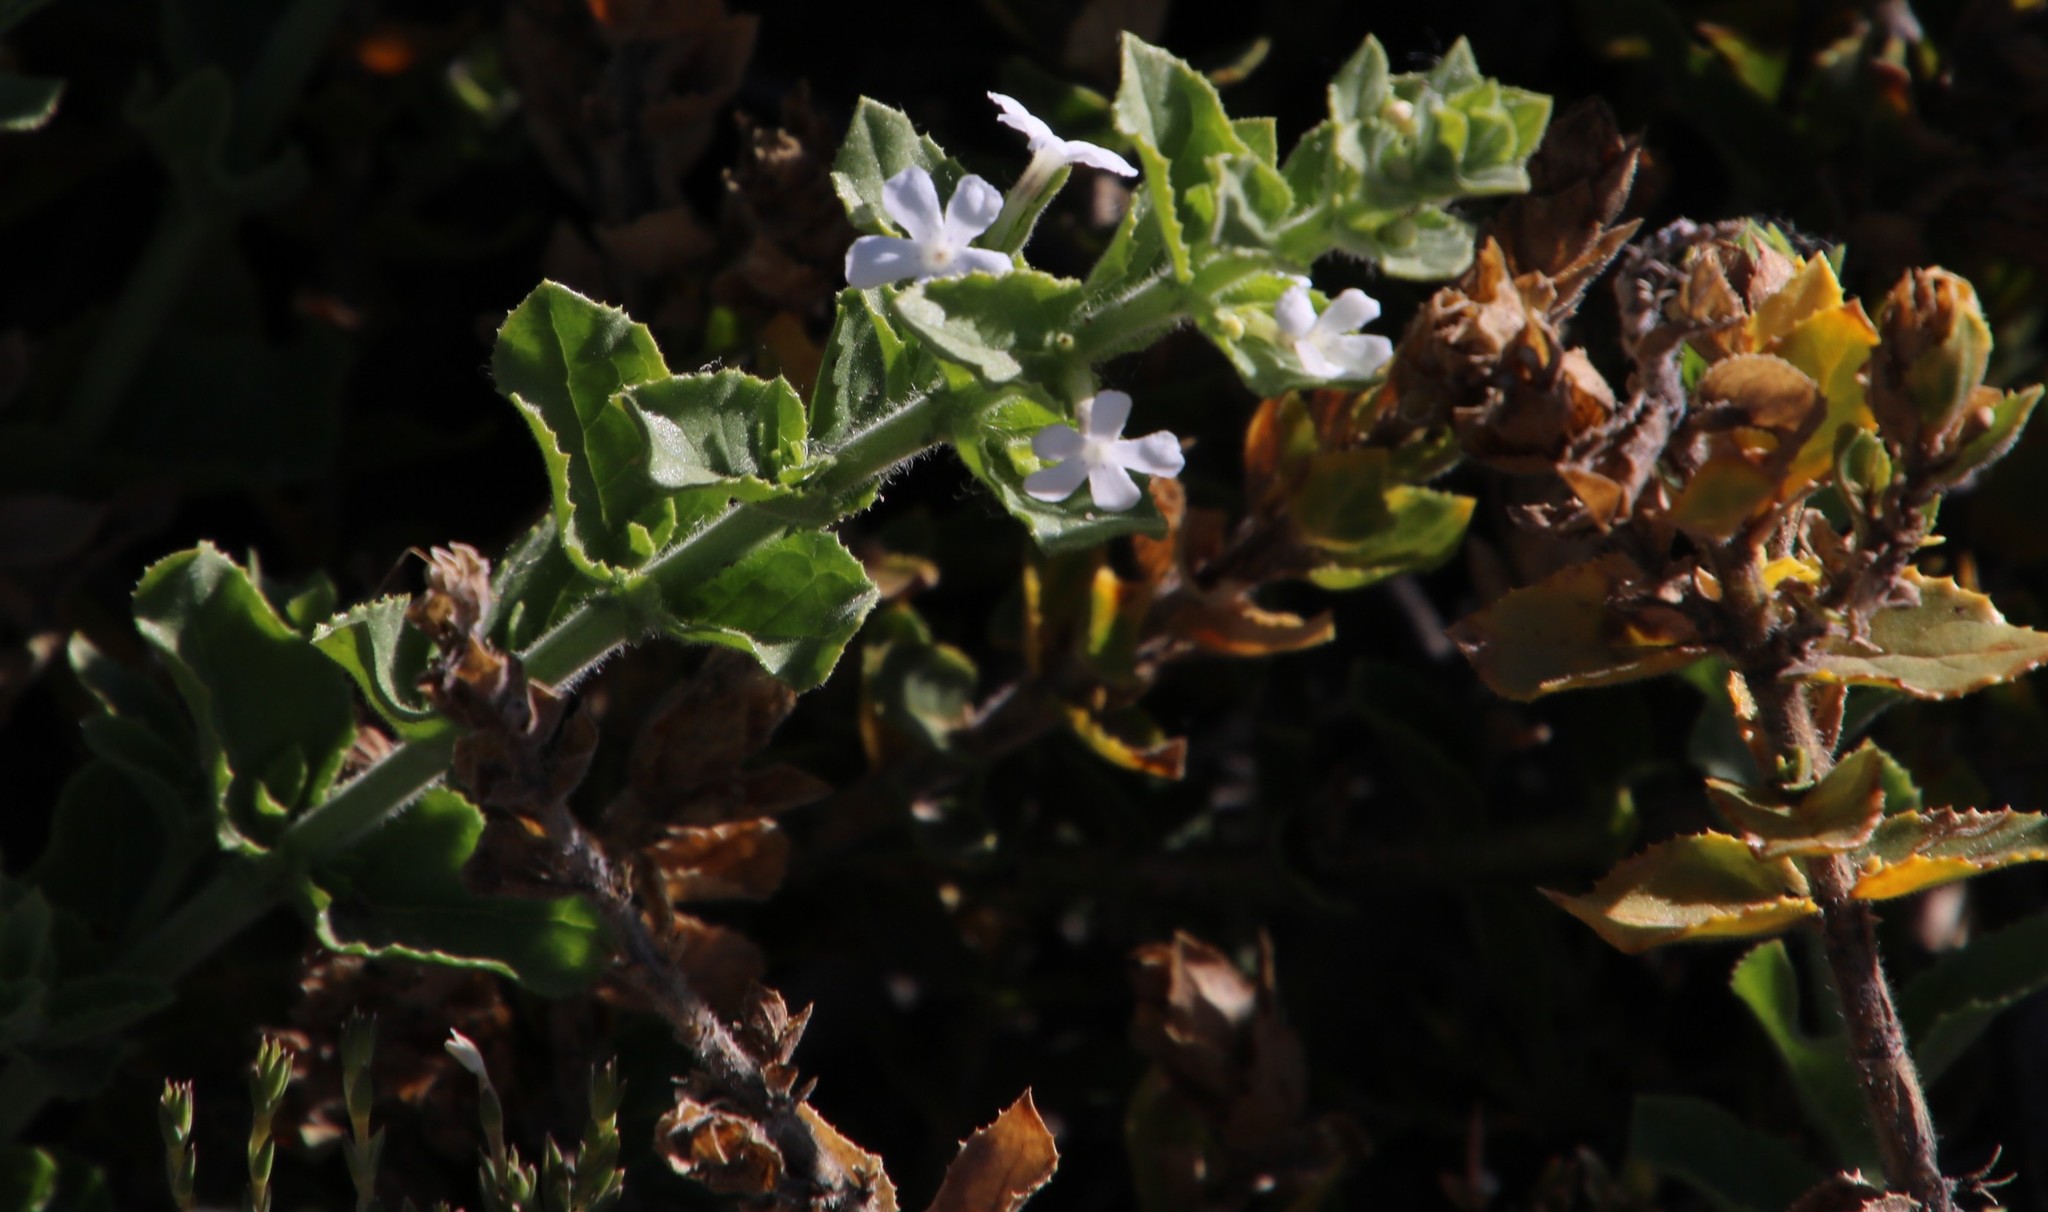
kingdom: Plantae
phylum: Tracheophyta
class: Magnoliopsida
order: Lamiales
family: Scrophulariaceae
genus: Oftia
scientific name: Oftia africana
